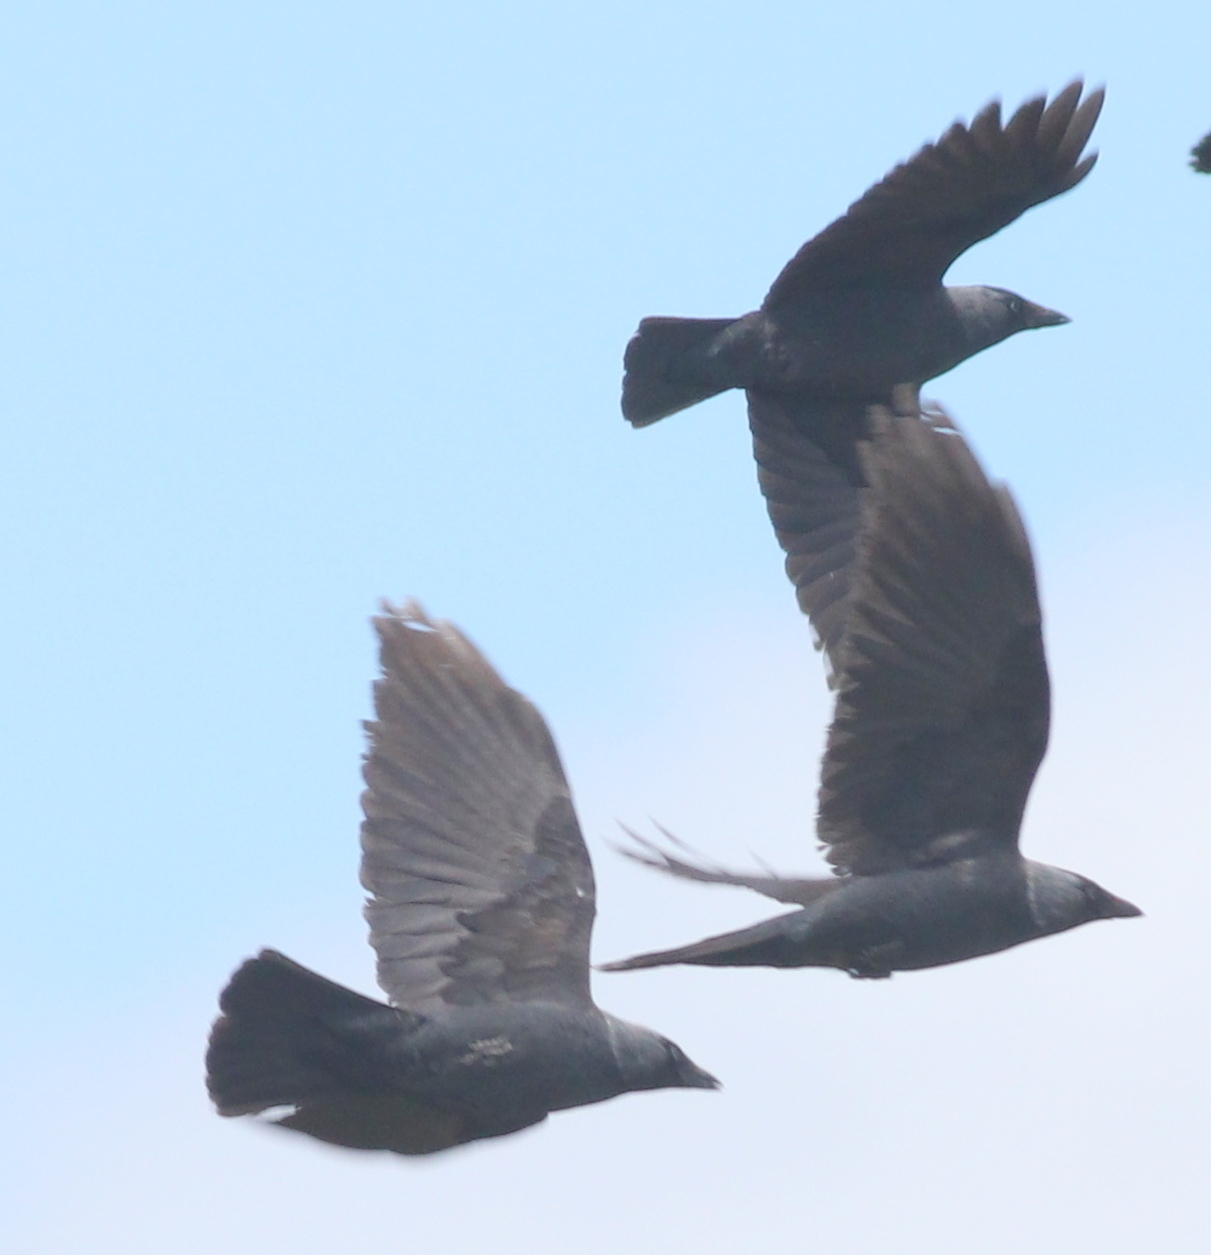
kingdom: Animalia
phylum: Chordata
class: Aves
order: Passeriformes
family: Corvidae
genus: Coloeus
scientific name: Coloeus monedula
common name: Western jackdaw
